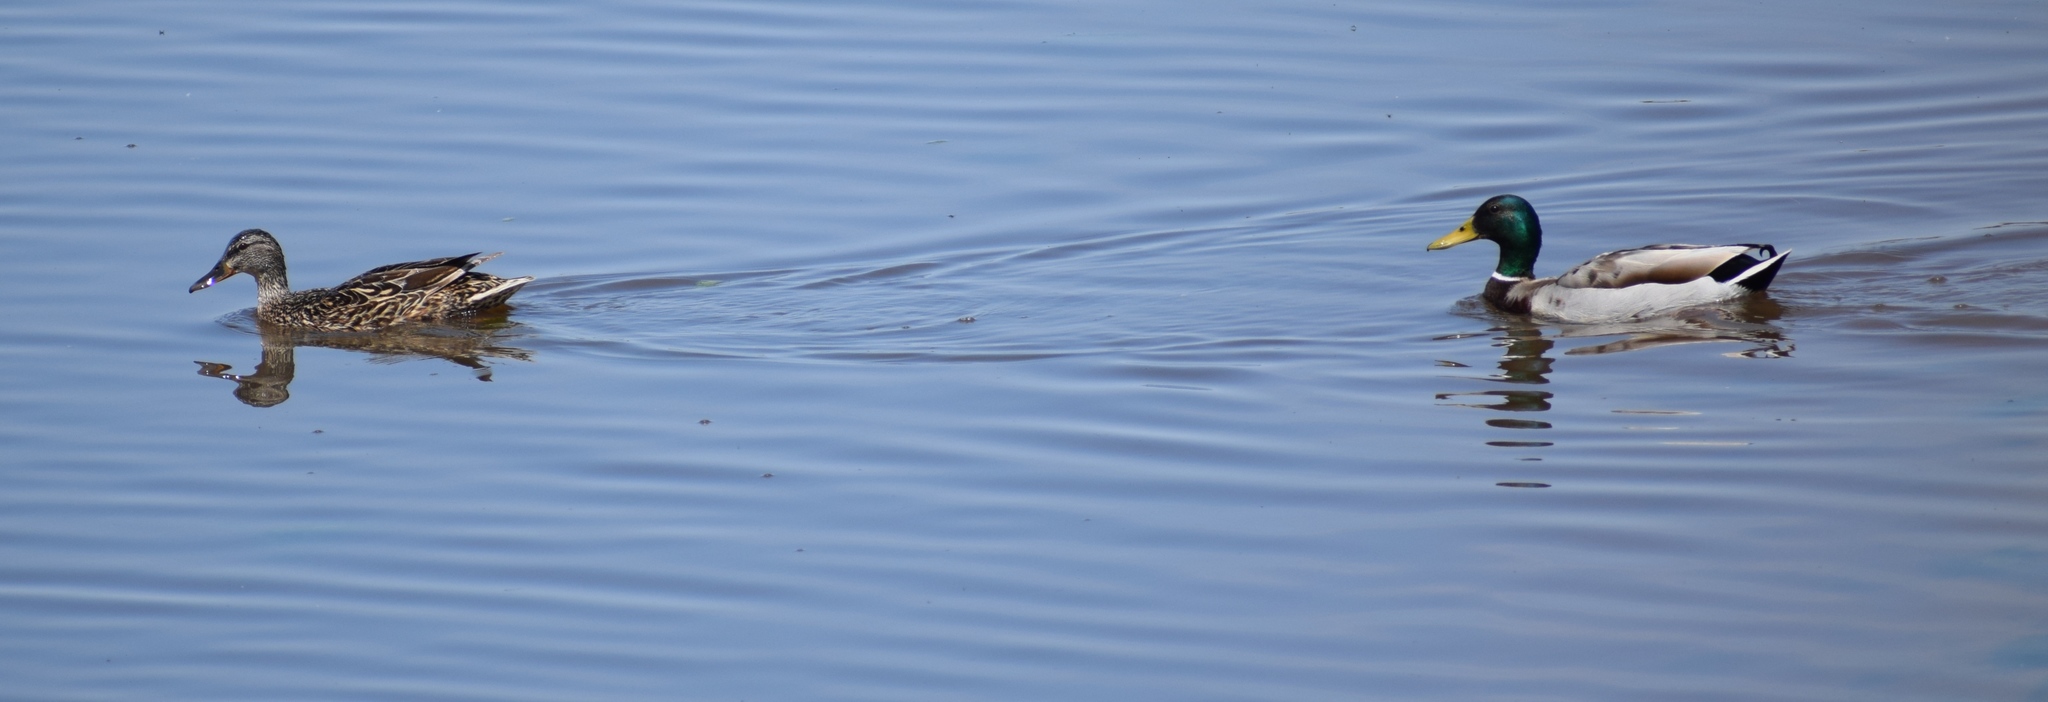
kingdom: Animalia
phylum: Chordata
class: Aves
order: Anseriformes
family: Anatidae
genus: Anas
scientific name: Anas platyrhynchos
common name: Mallard
